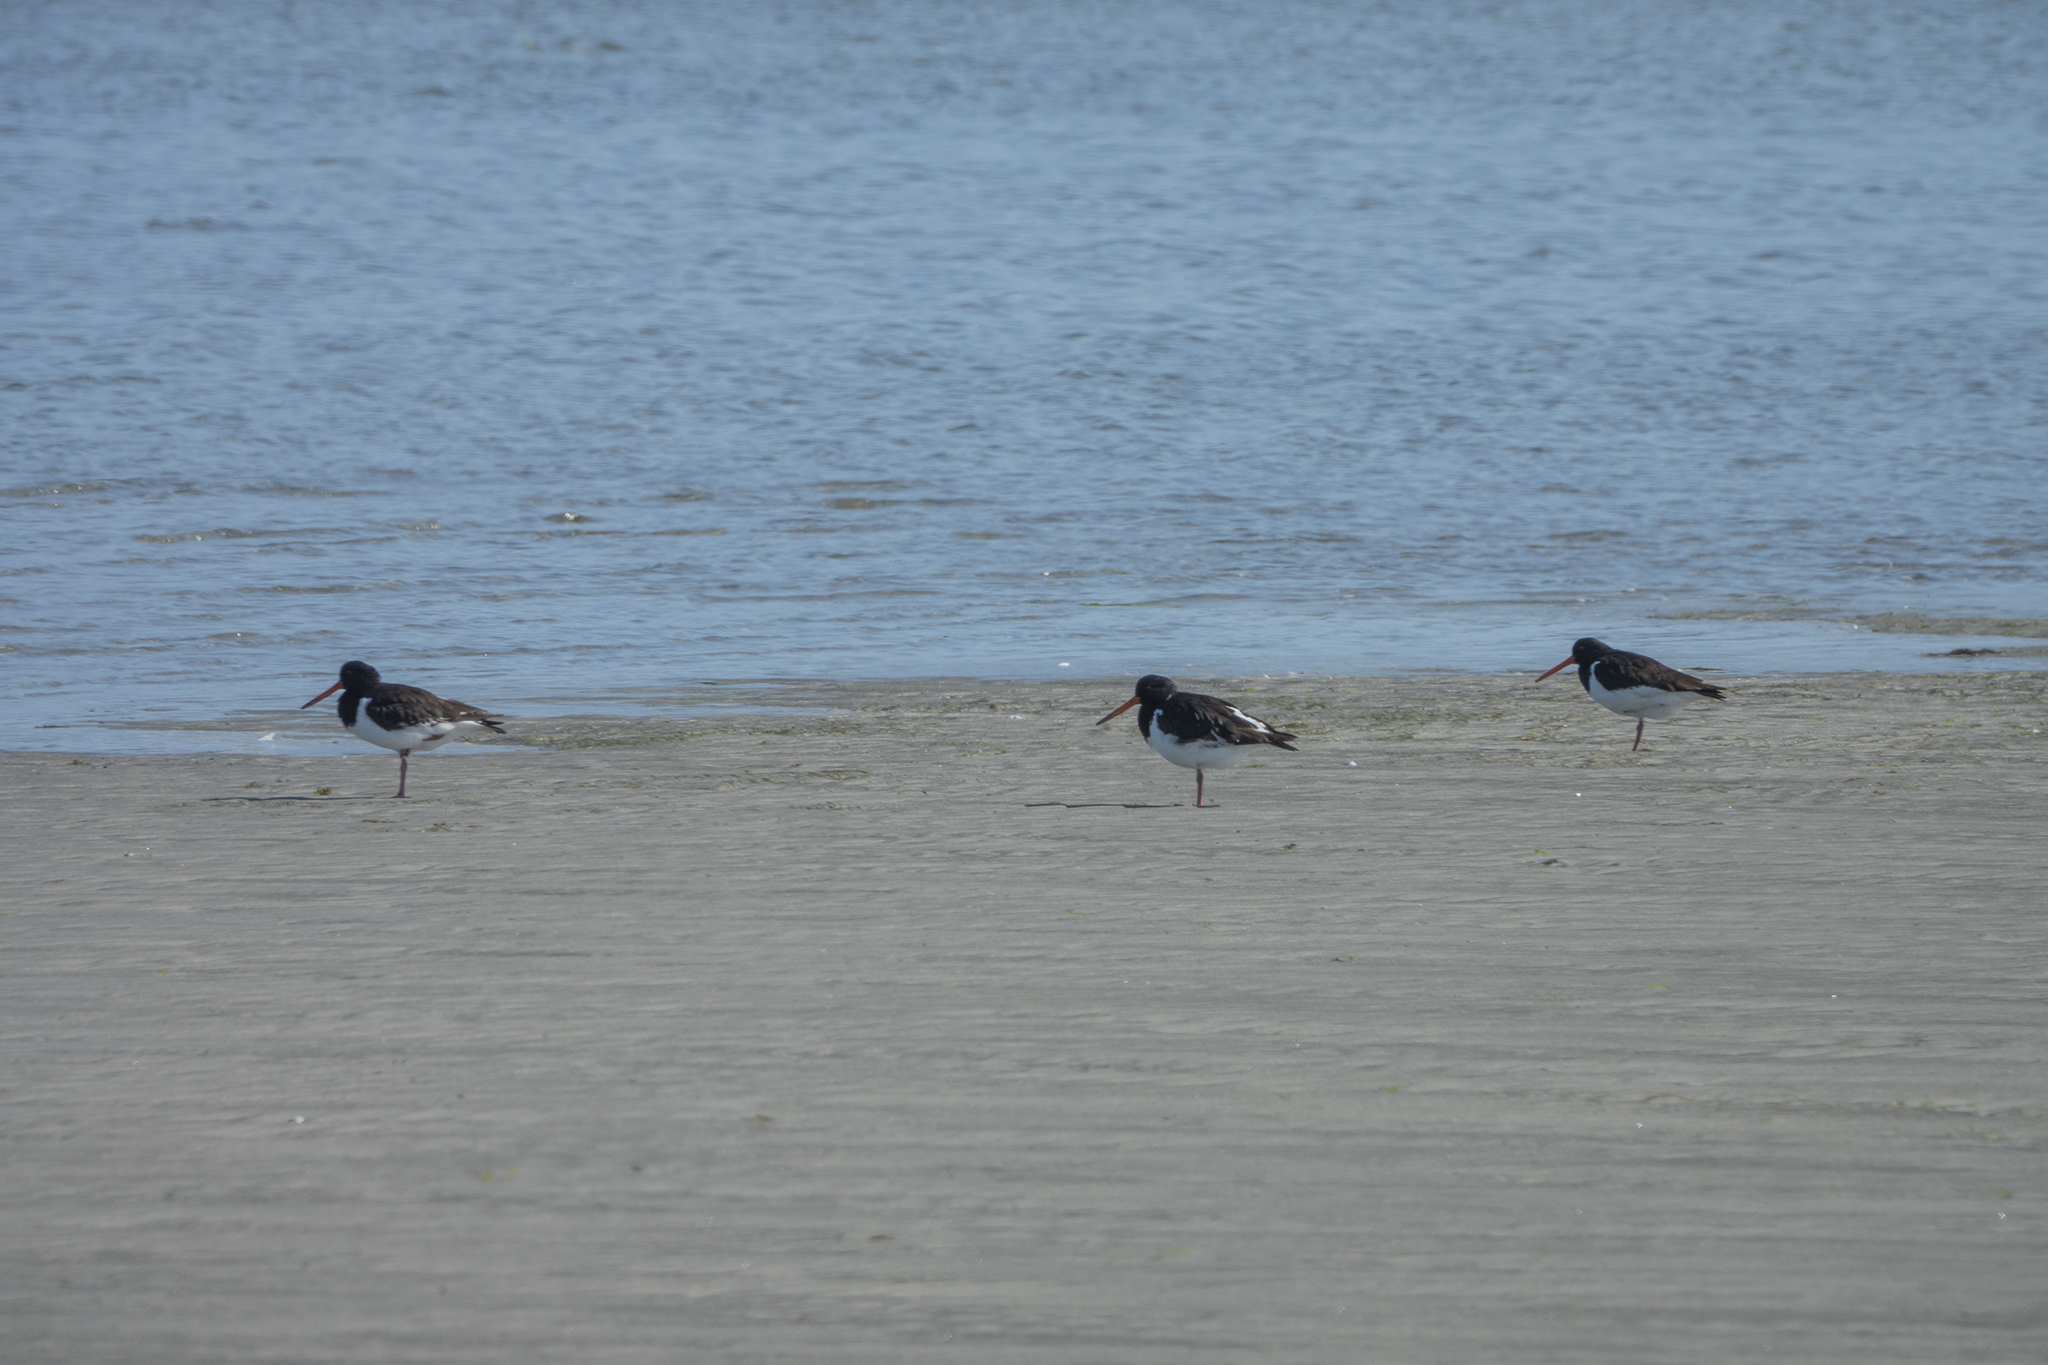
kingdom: Animalia
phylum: Chordata
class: Aves
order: Charadriiformes
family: Haematopodidae
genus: Haematopus
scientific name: Haematopus finschi
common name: South island oystercatcher
